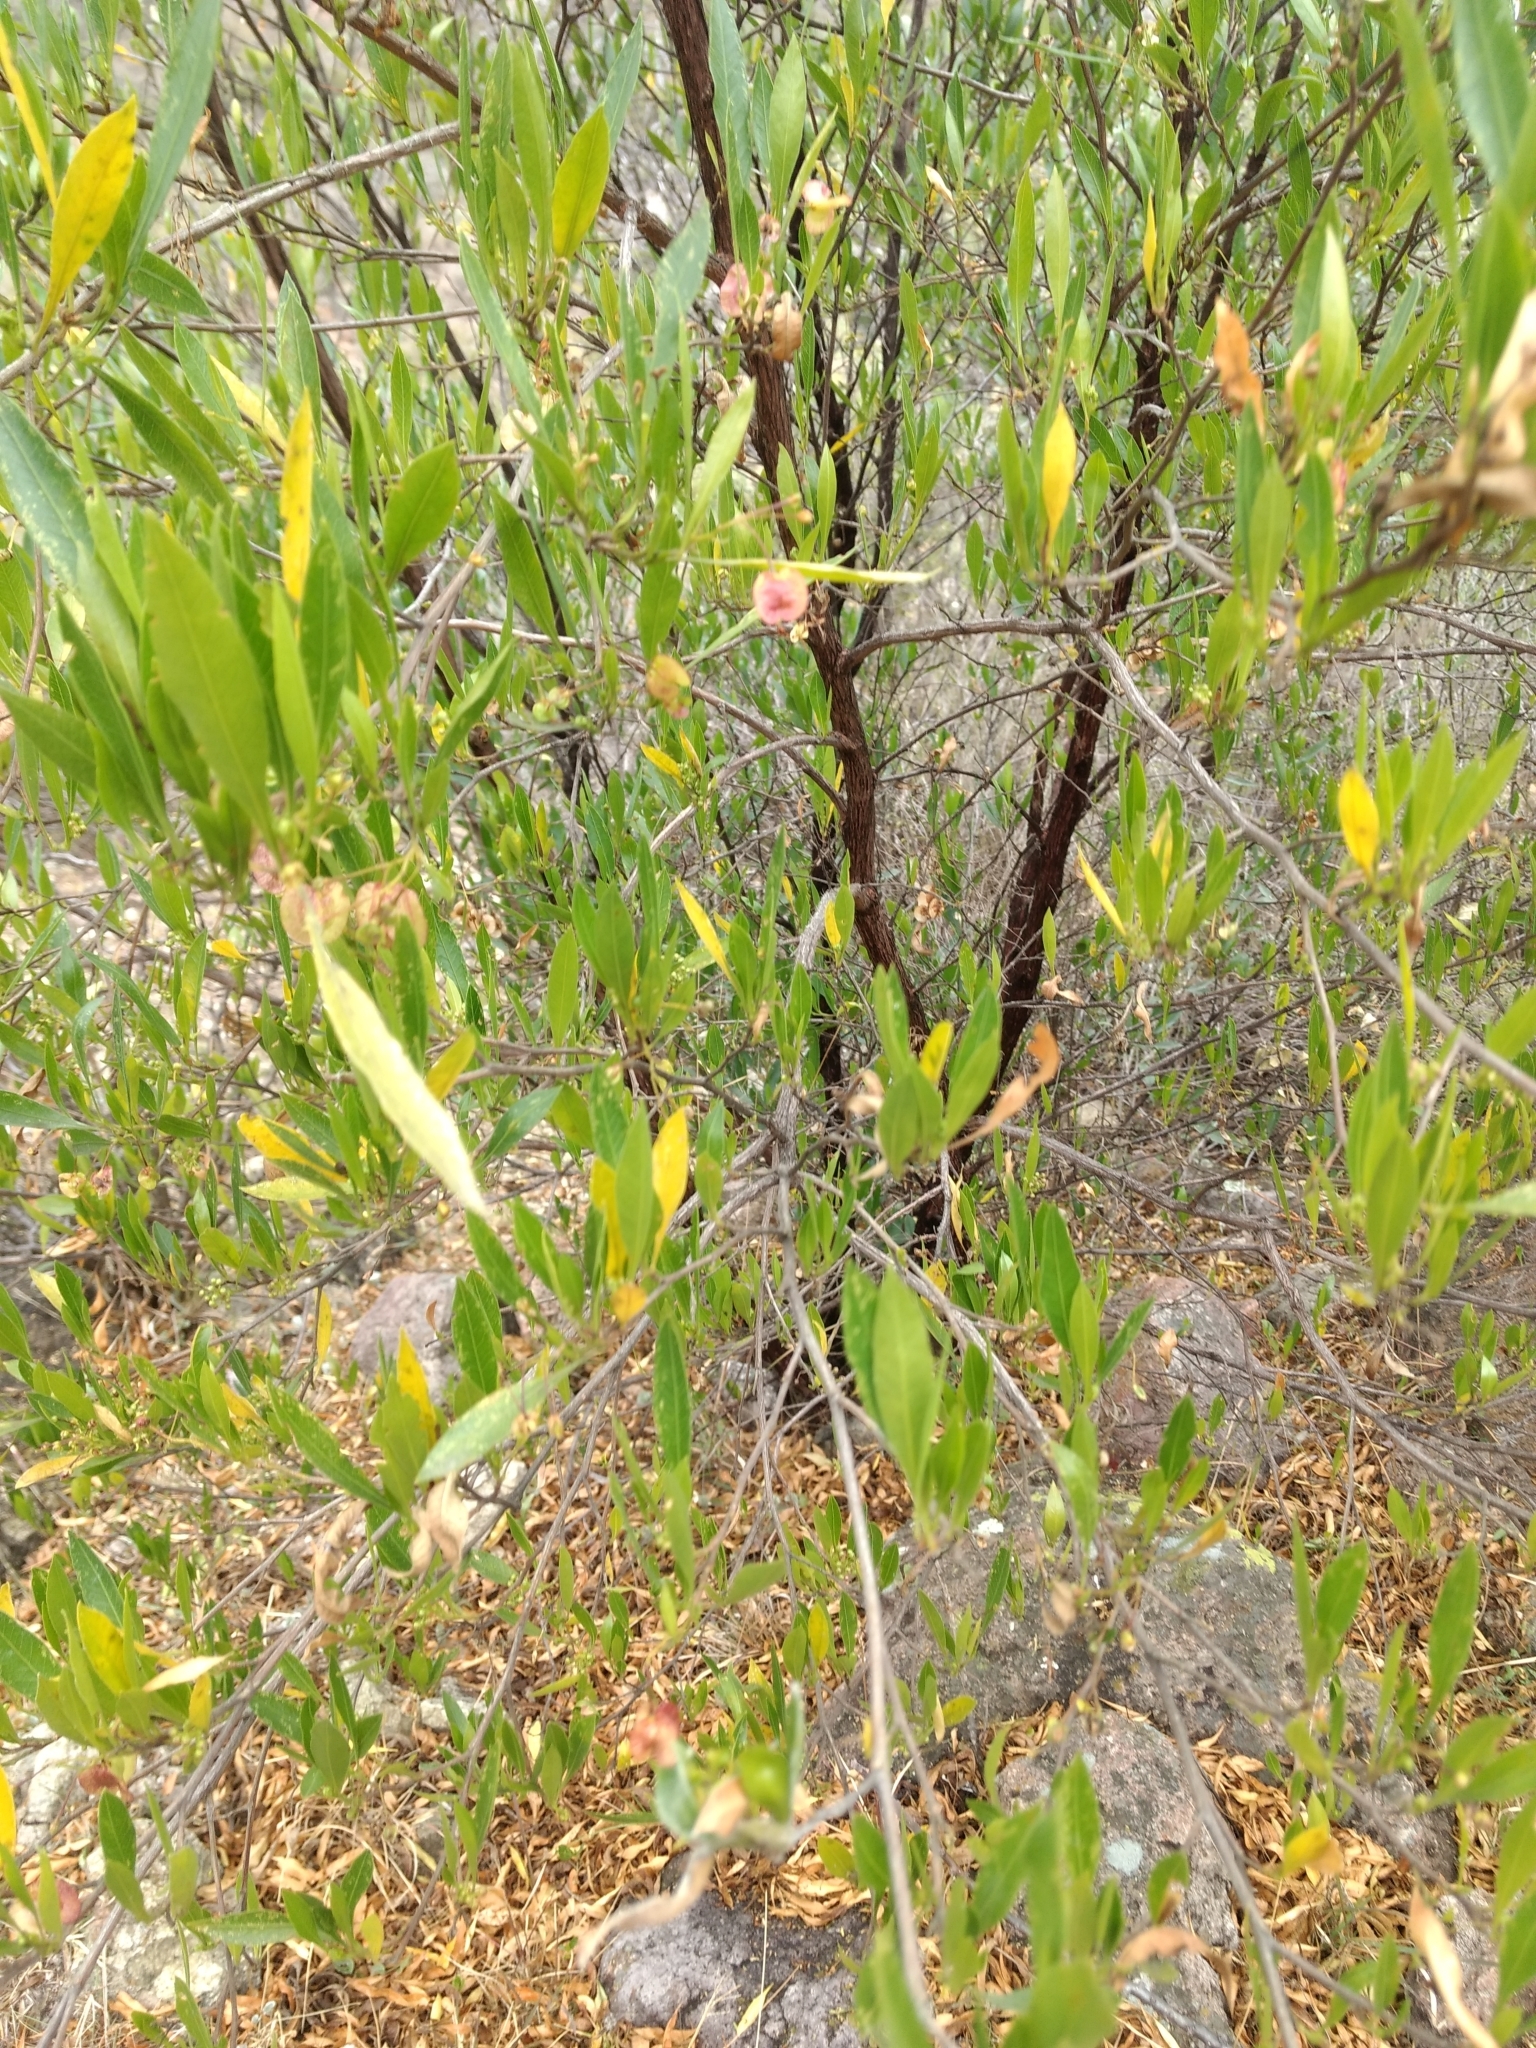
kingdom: Plantae
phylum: Tracheophyta
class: Magnoliopsida
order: Sapindales
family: Sapindaceae
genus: Dodonaea
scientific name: Dodonaea viscosa
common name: Hopbush
